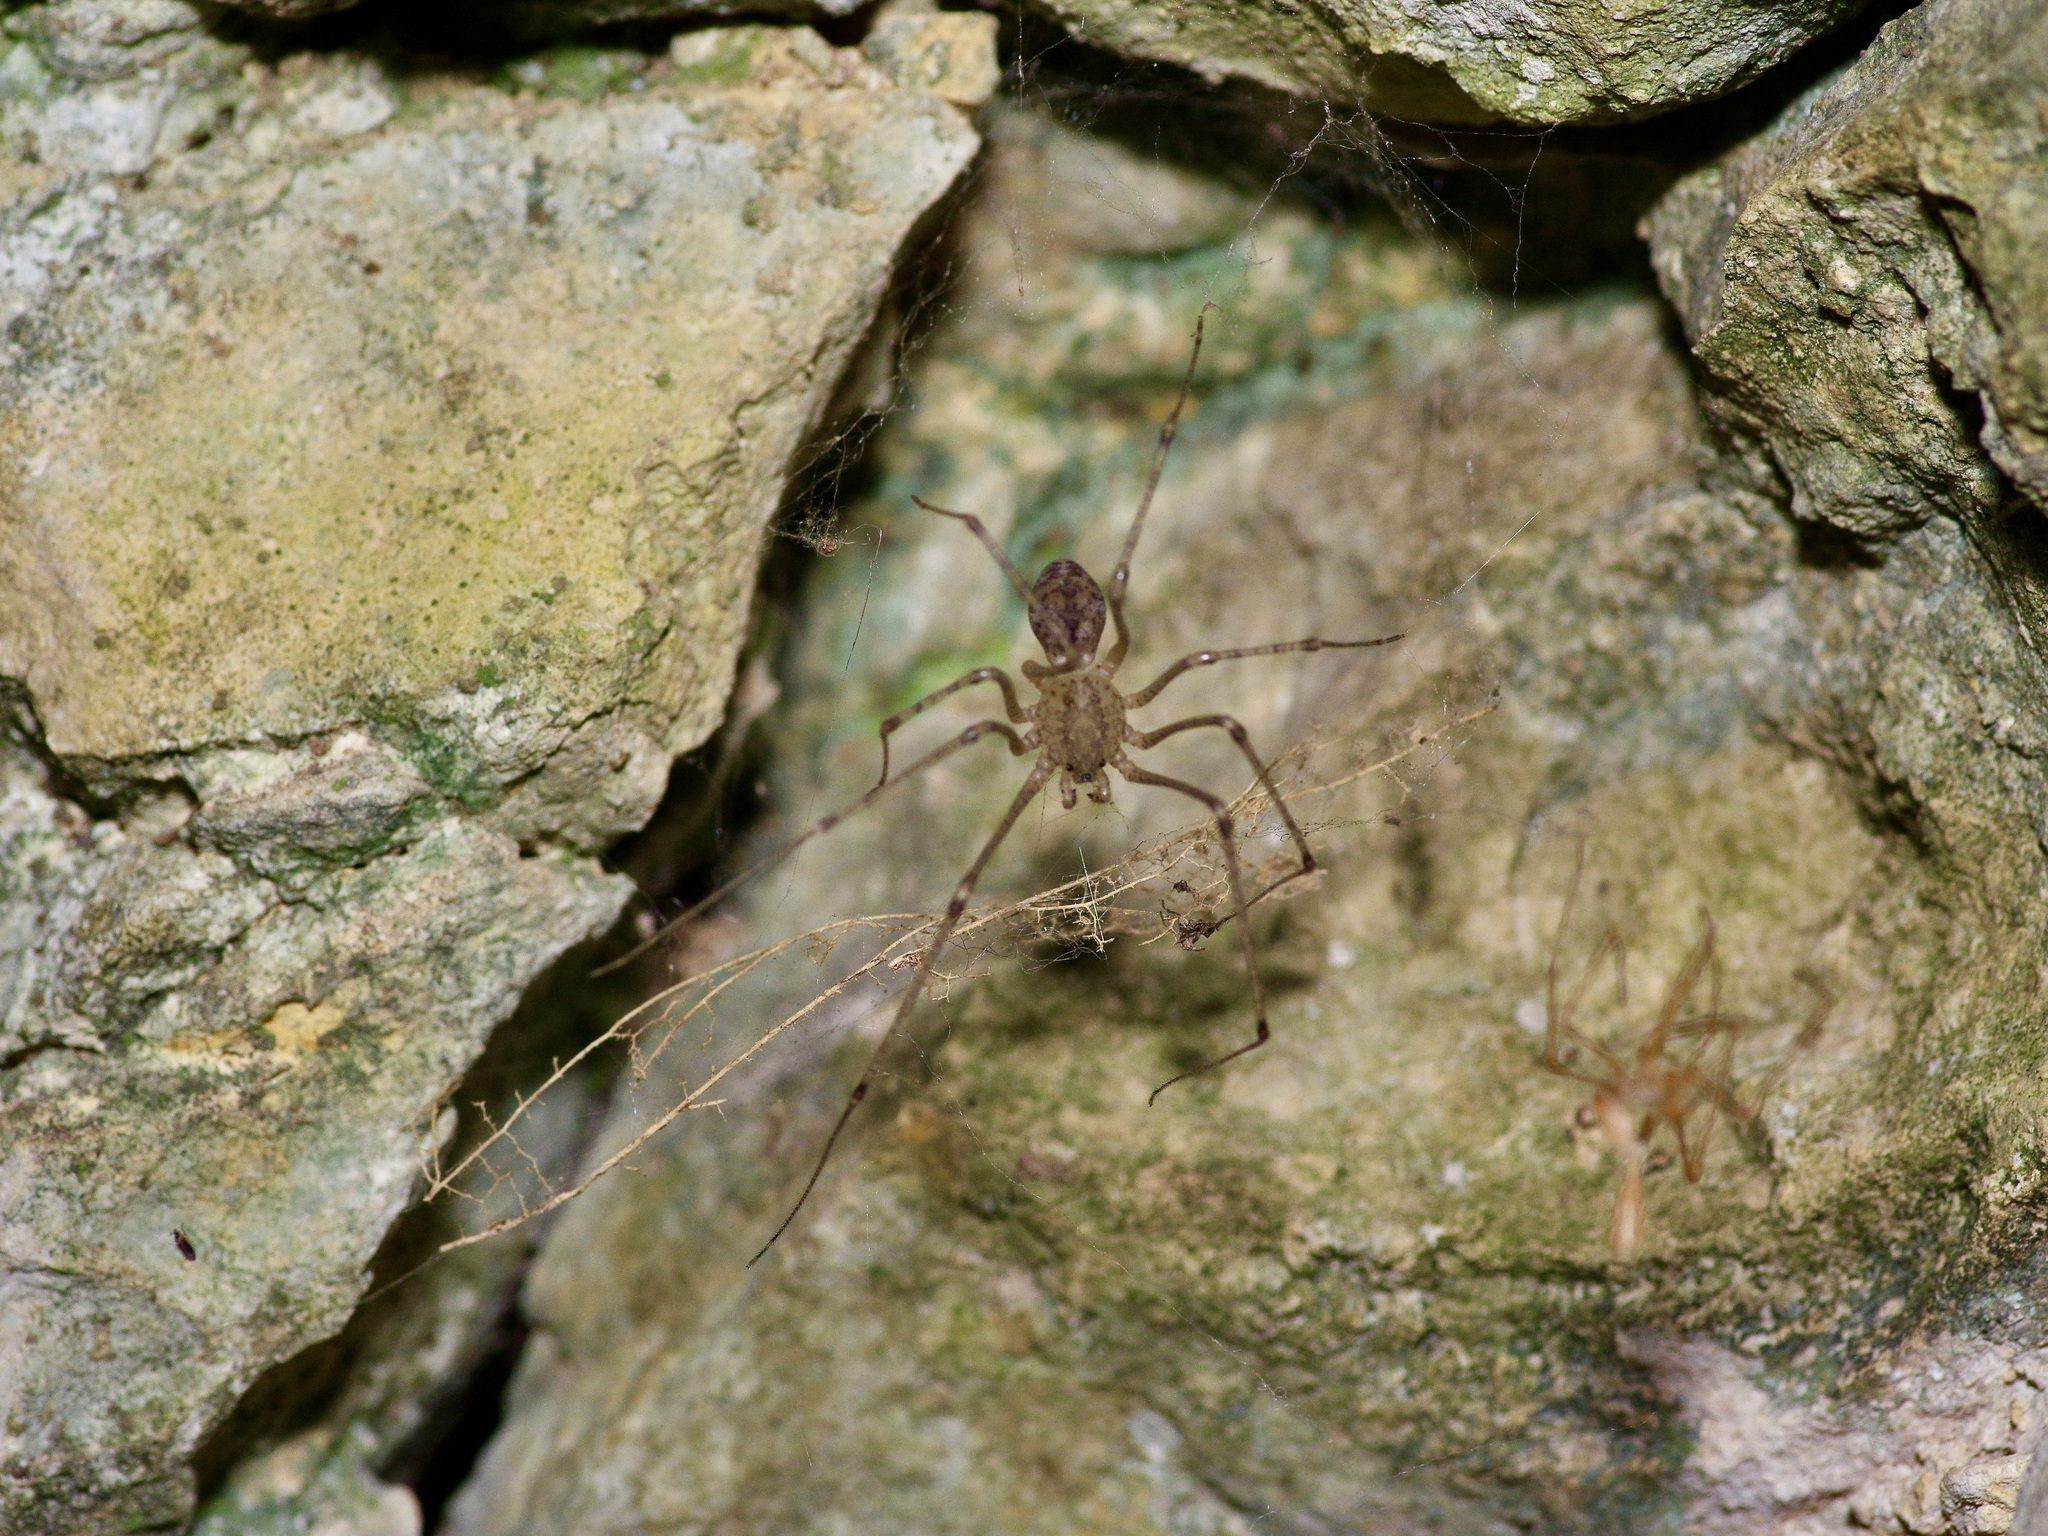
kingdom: Animalia
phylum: Arthropoda
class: Arachnida
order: Araneae
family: Scytodidae
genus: Scytodes
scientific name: Scytodes atlacoya
